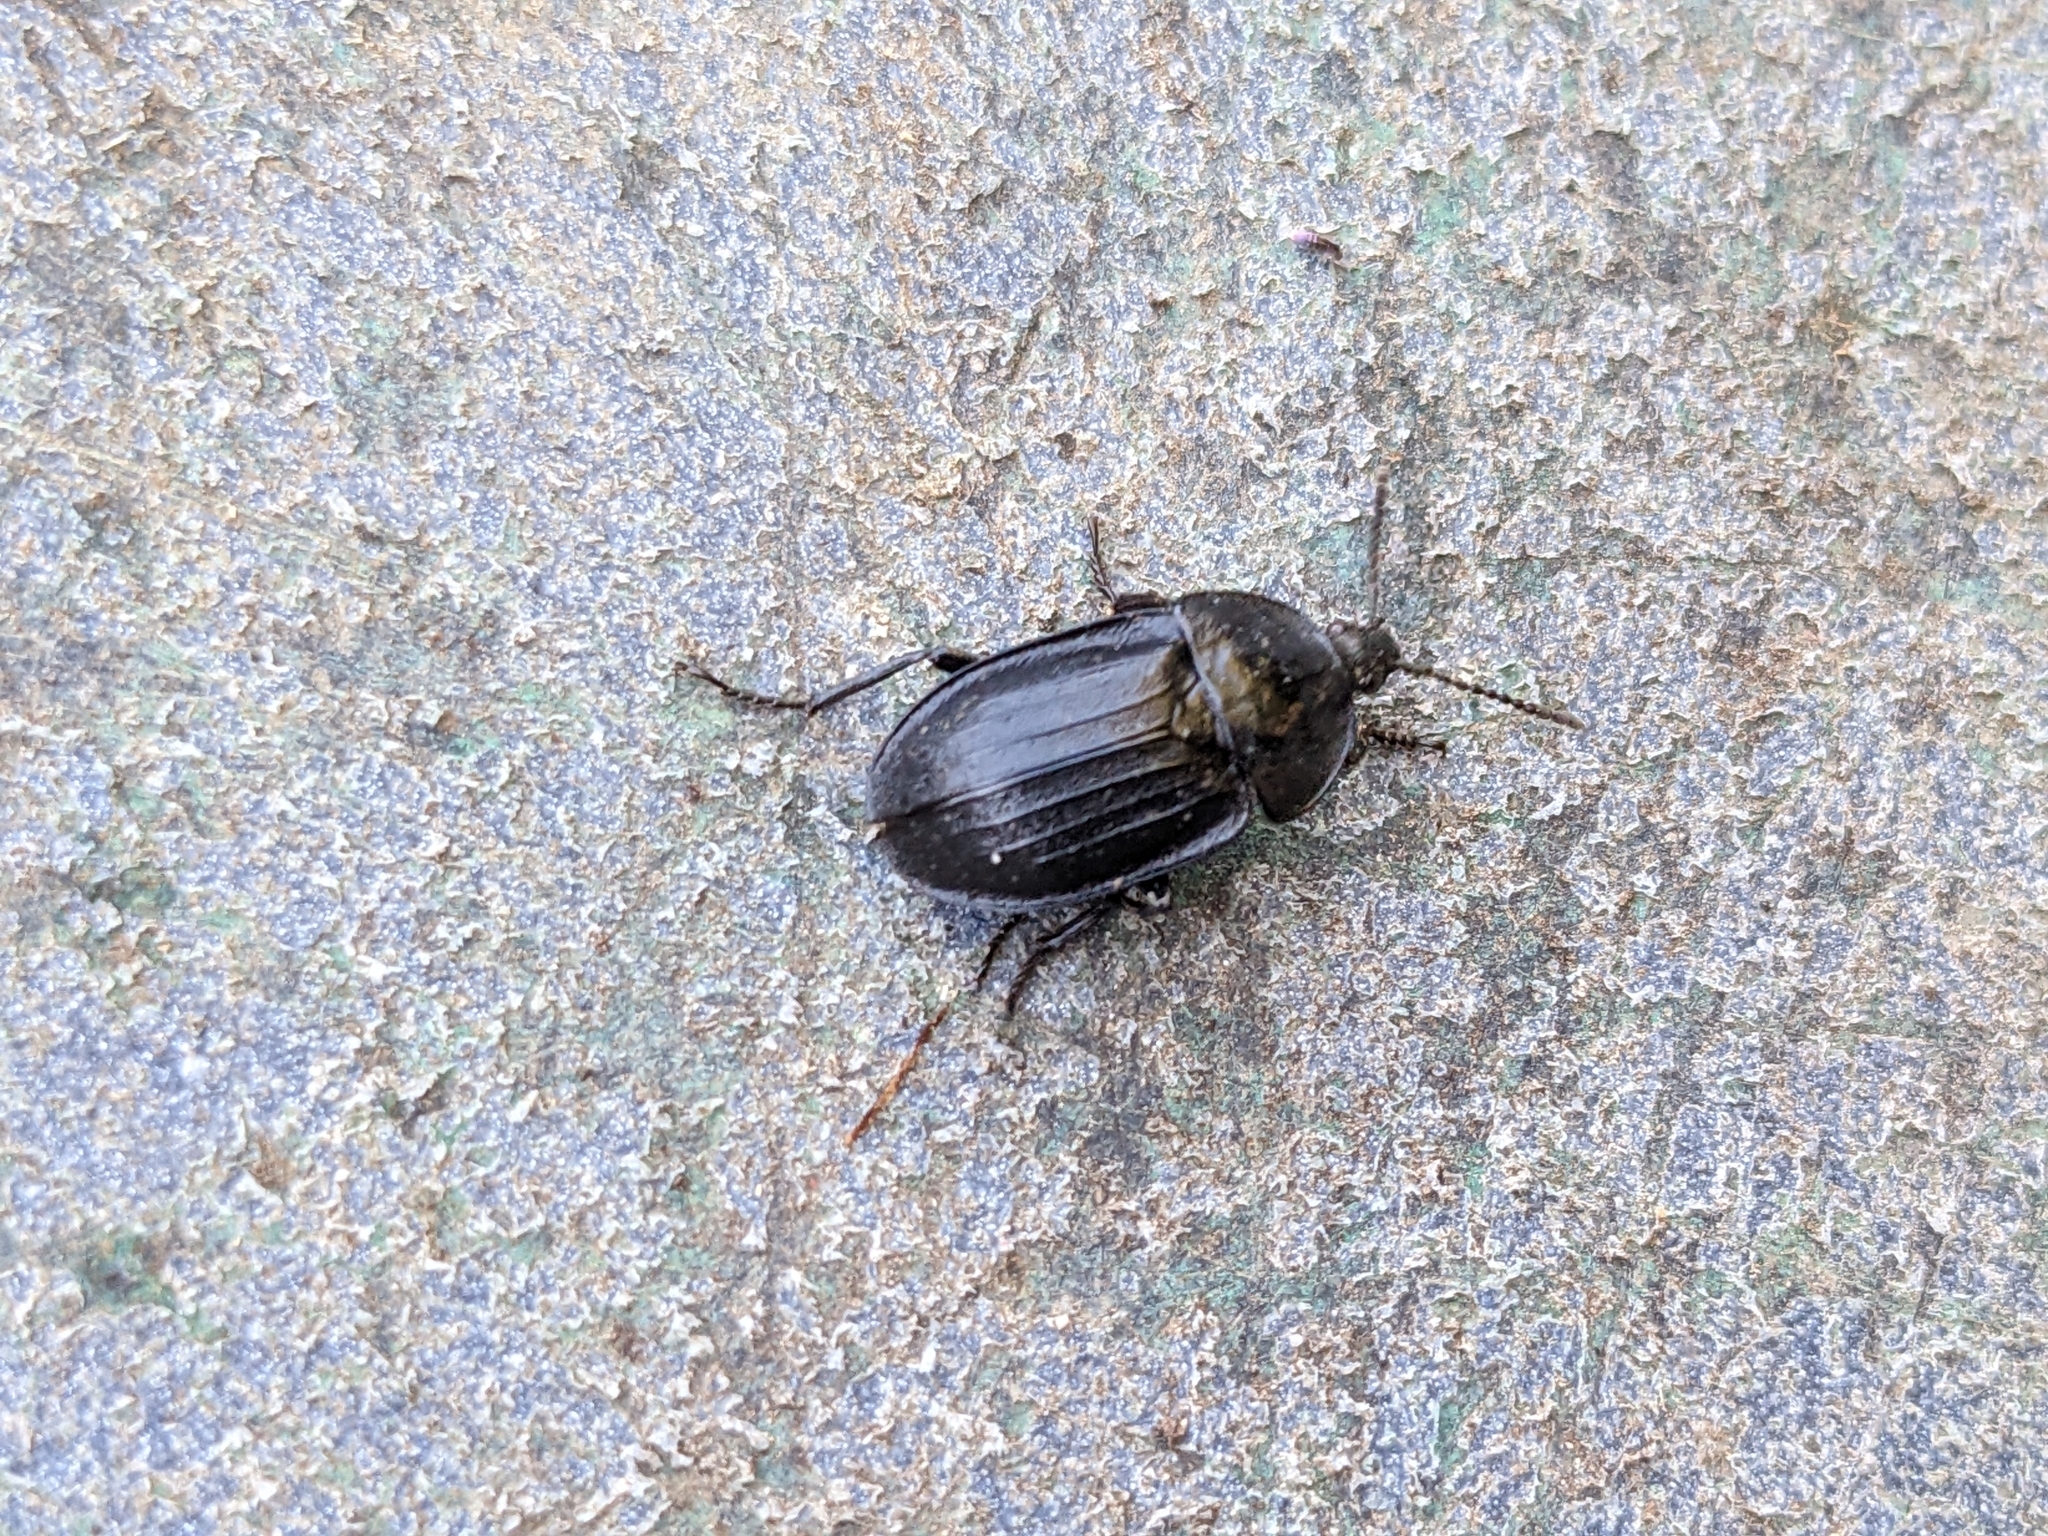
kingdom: Animalia
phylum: Arthropoda
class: Insecta
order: Coleoptera
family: Staphylinidae
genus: Silpha
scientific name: Silpha atrata
